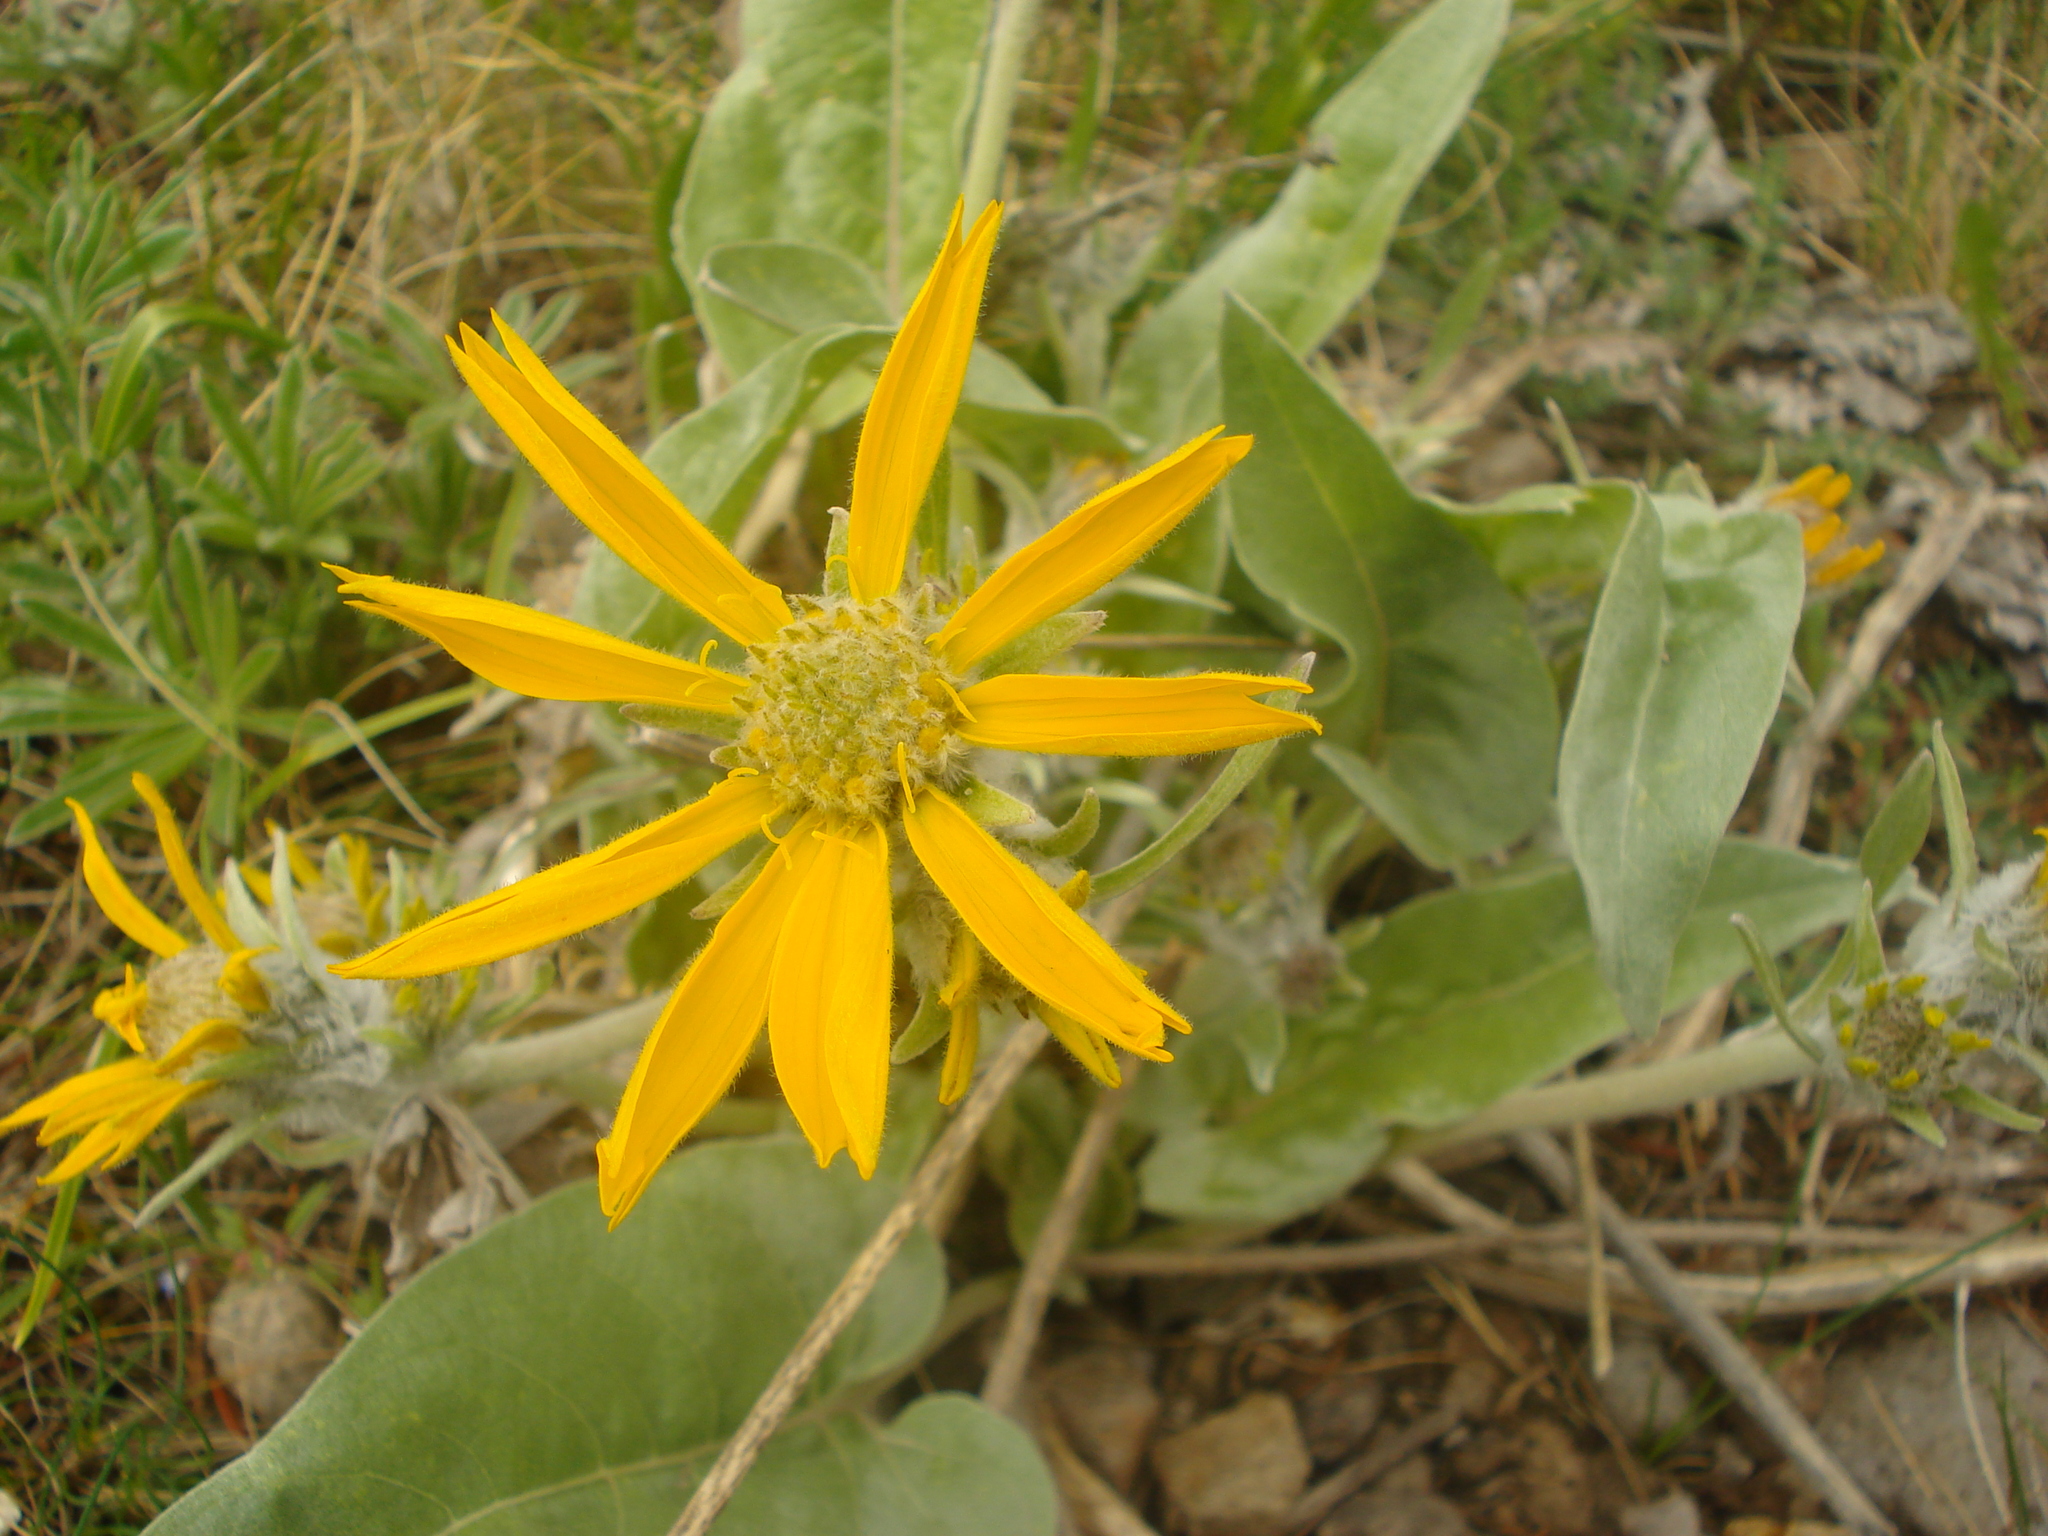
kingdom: Plantae
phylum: Tracheophyta
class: Magnoliopsida
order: Asterales
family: Asteraceae
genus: Wyethia
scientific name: Wyethia sagittata
